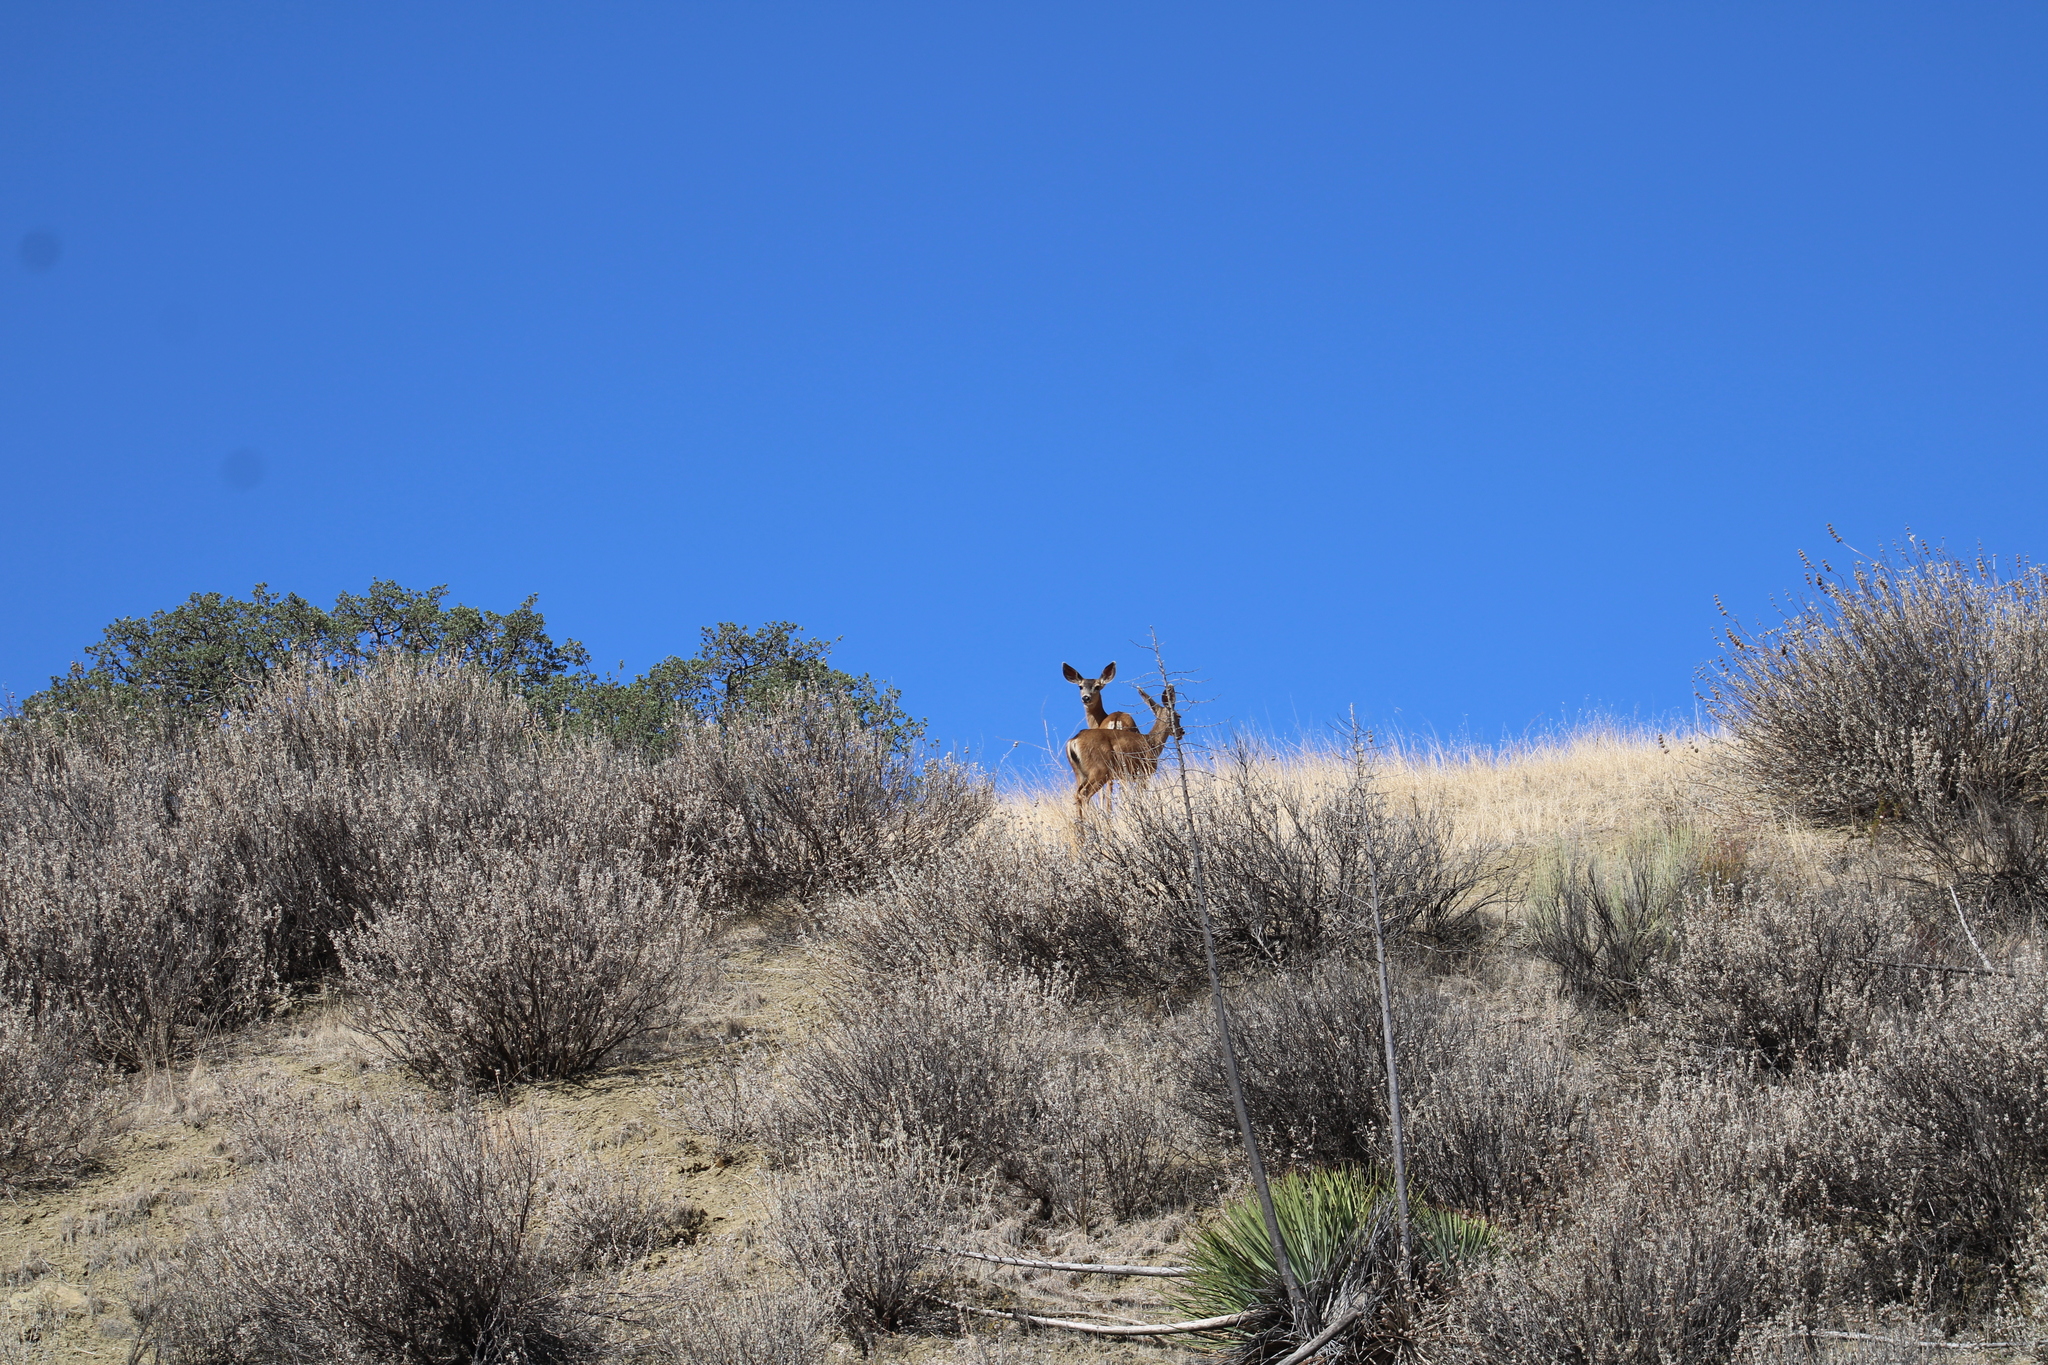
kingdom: Animalia
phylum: Chordata
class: Mammalia
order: Artiodactyla
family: Cervidae
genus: Odocoileus
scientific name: Odocoileus hemionus
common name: Mule deer
